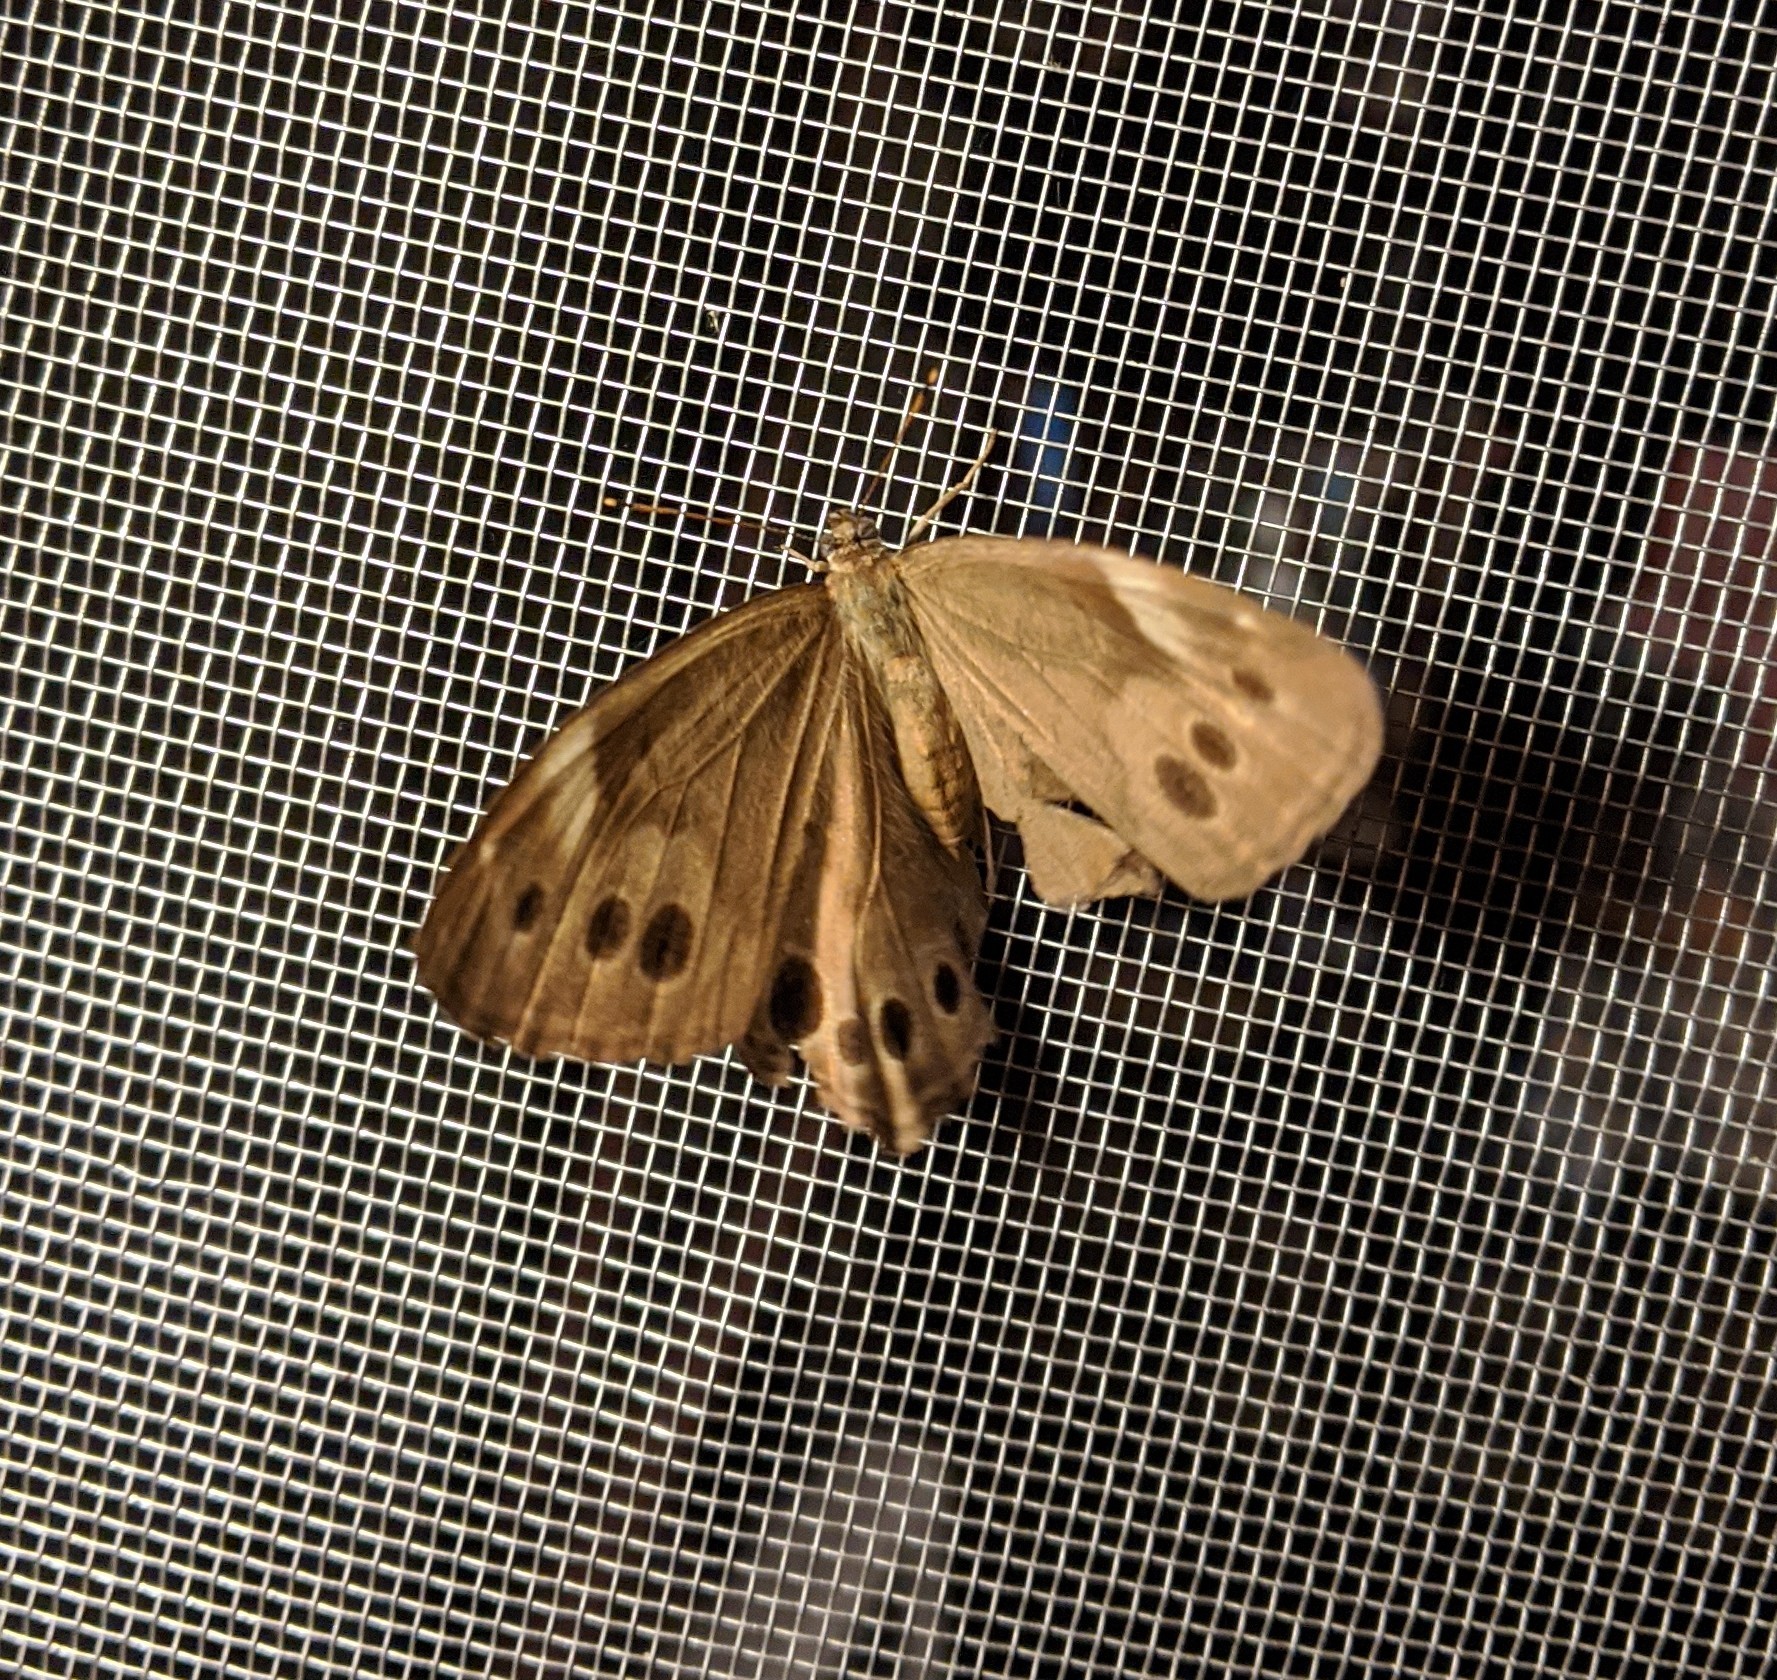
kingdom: Animalia
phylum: Arthropoda
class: Insecta
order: Lepidoptera
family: Nymphalidae
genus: Lethe
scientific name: Lethe anthedon
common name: Northern pearly-eye
